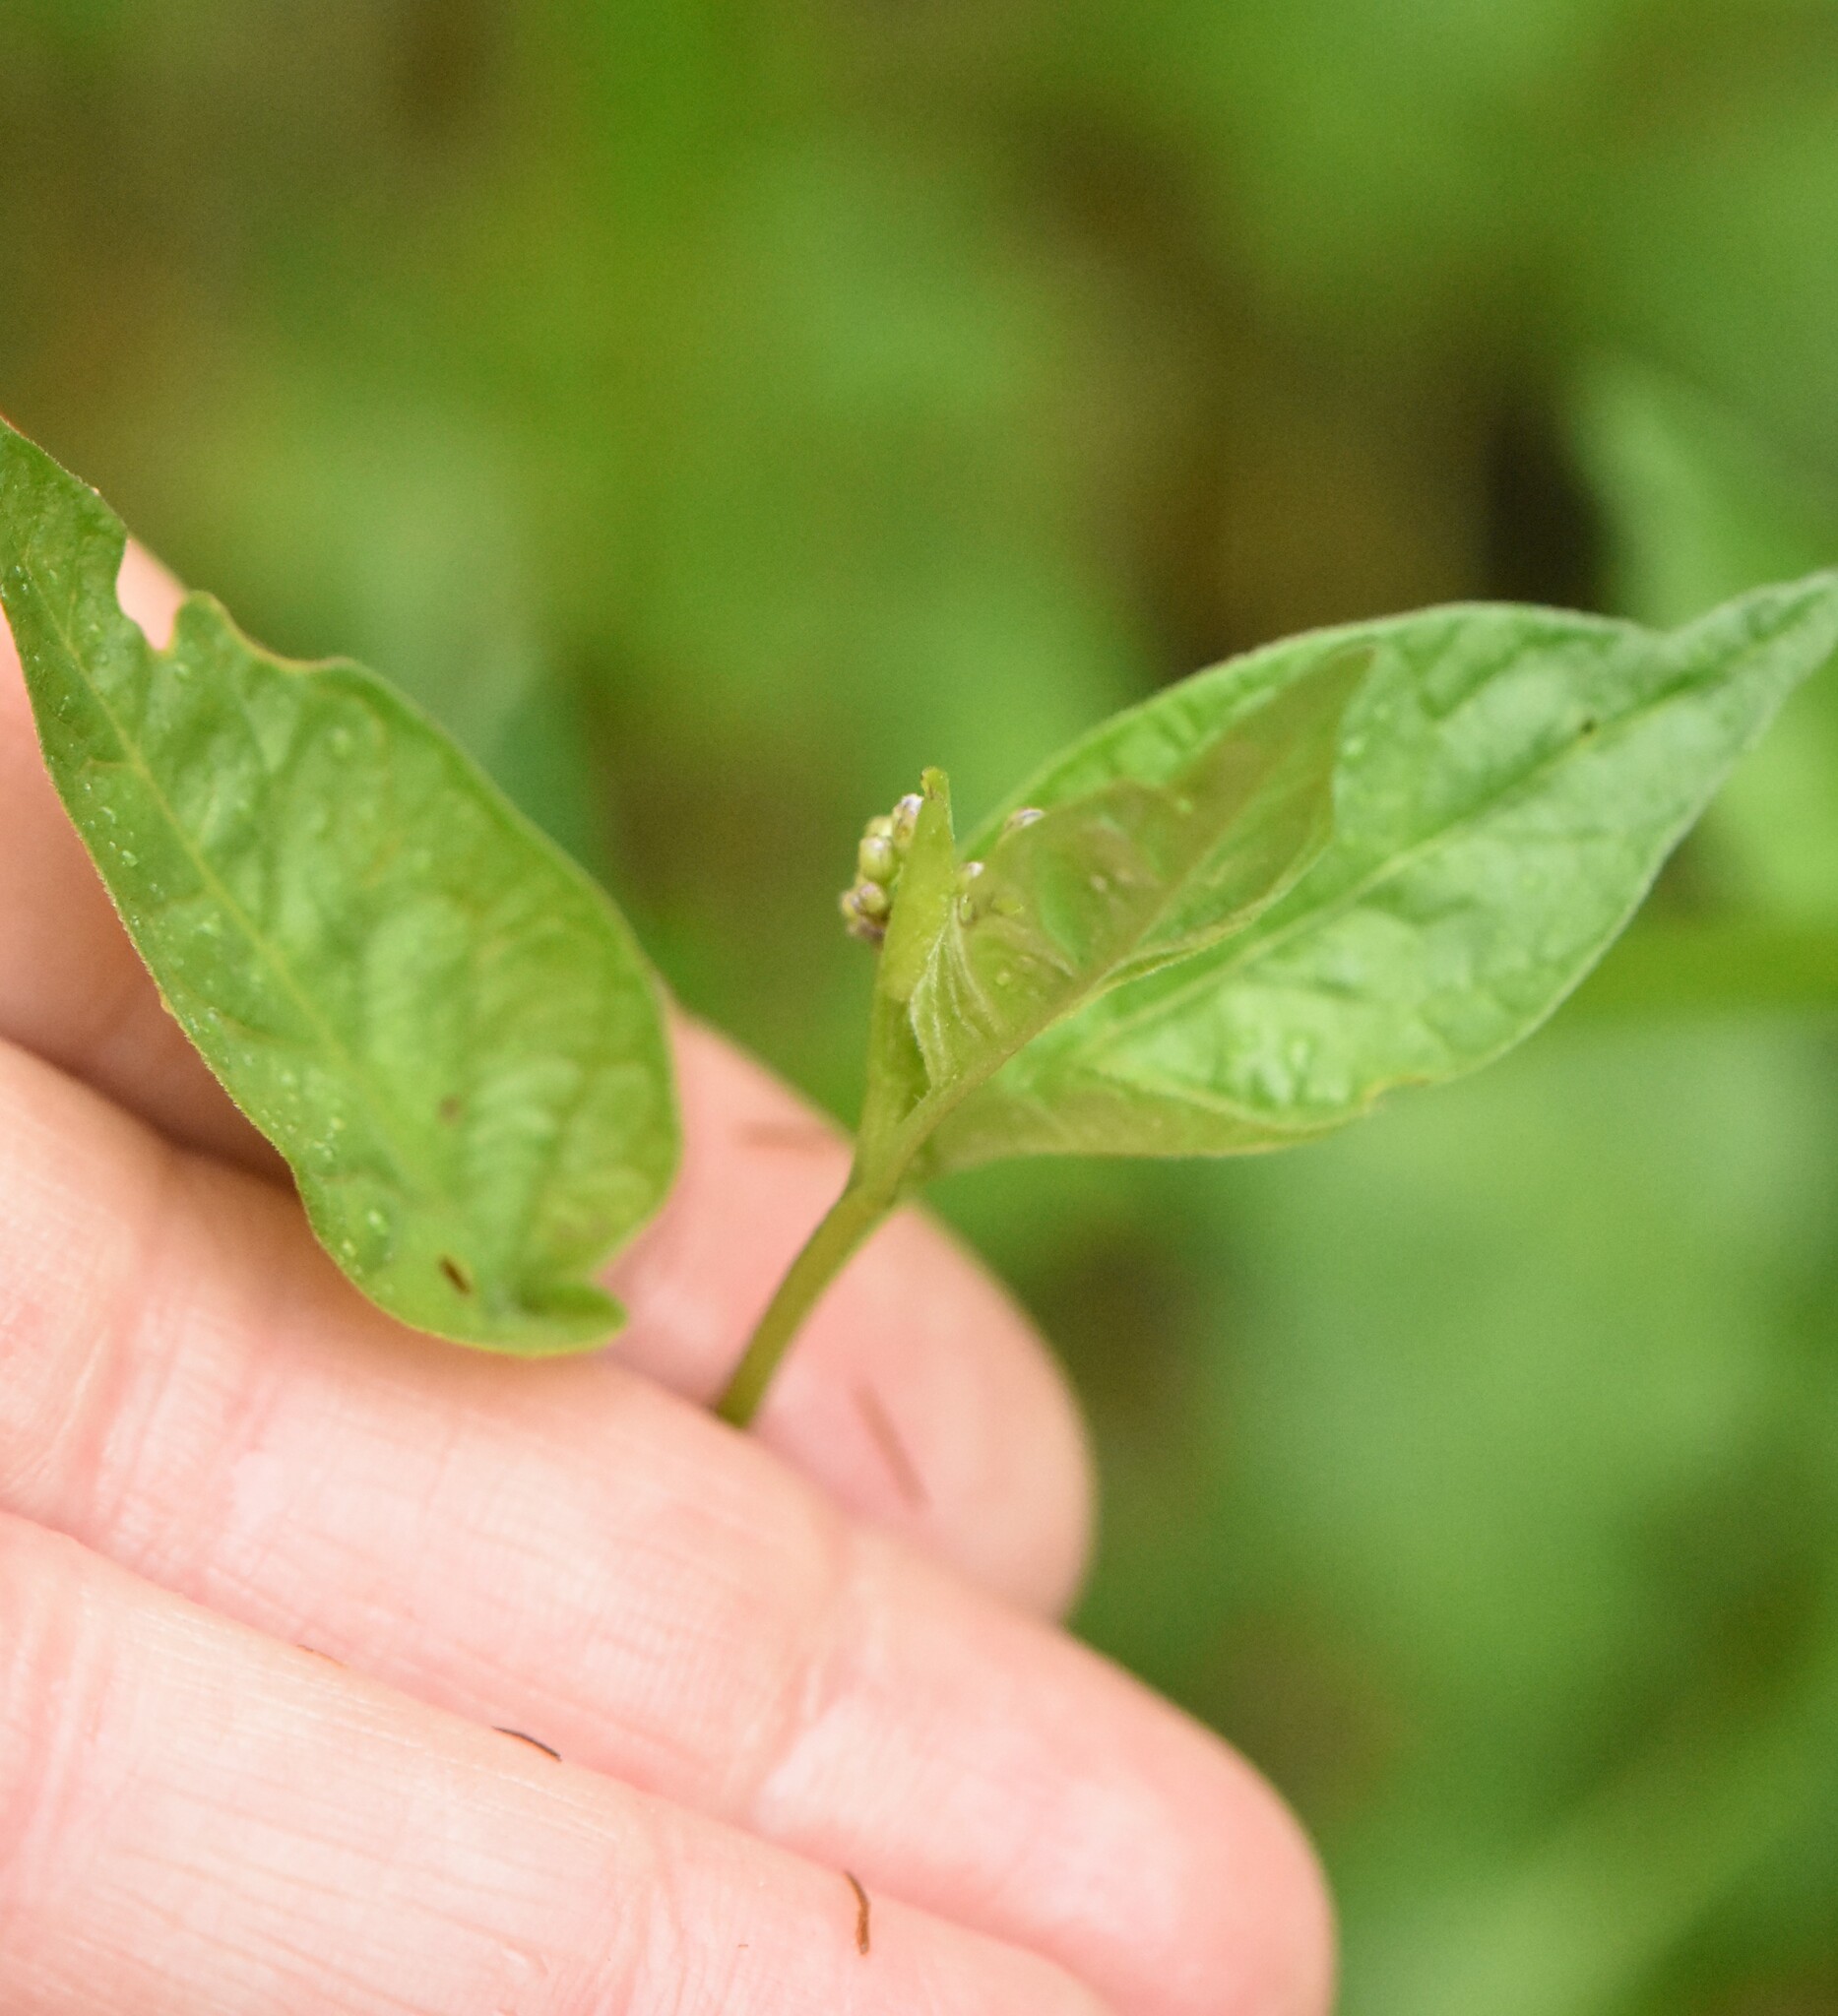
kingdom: Plantae
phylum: Tracheophyta
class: Magnoliopsida
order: Solanales
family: Solanaceae
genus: Solanum
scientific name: Solanum dulcamara
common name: Climbing nightshade
